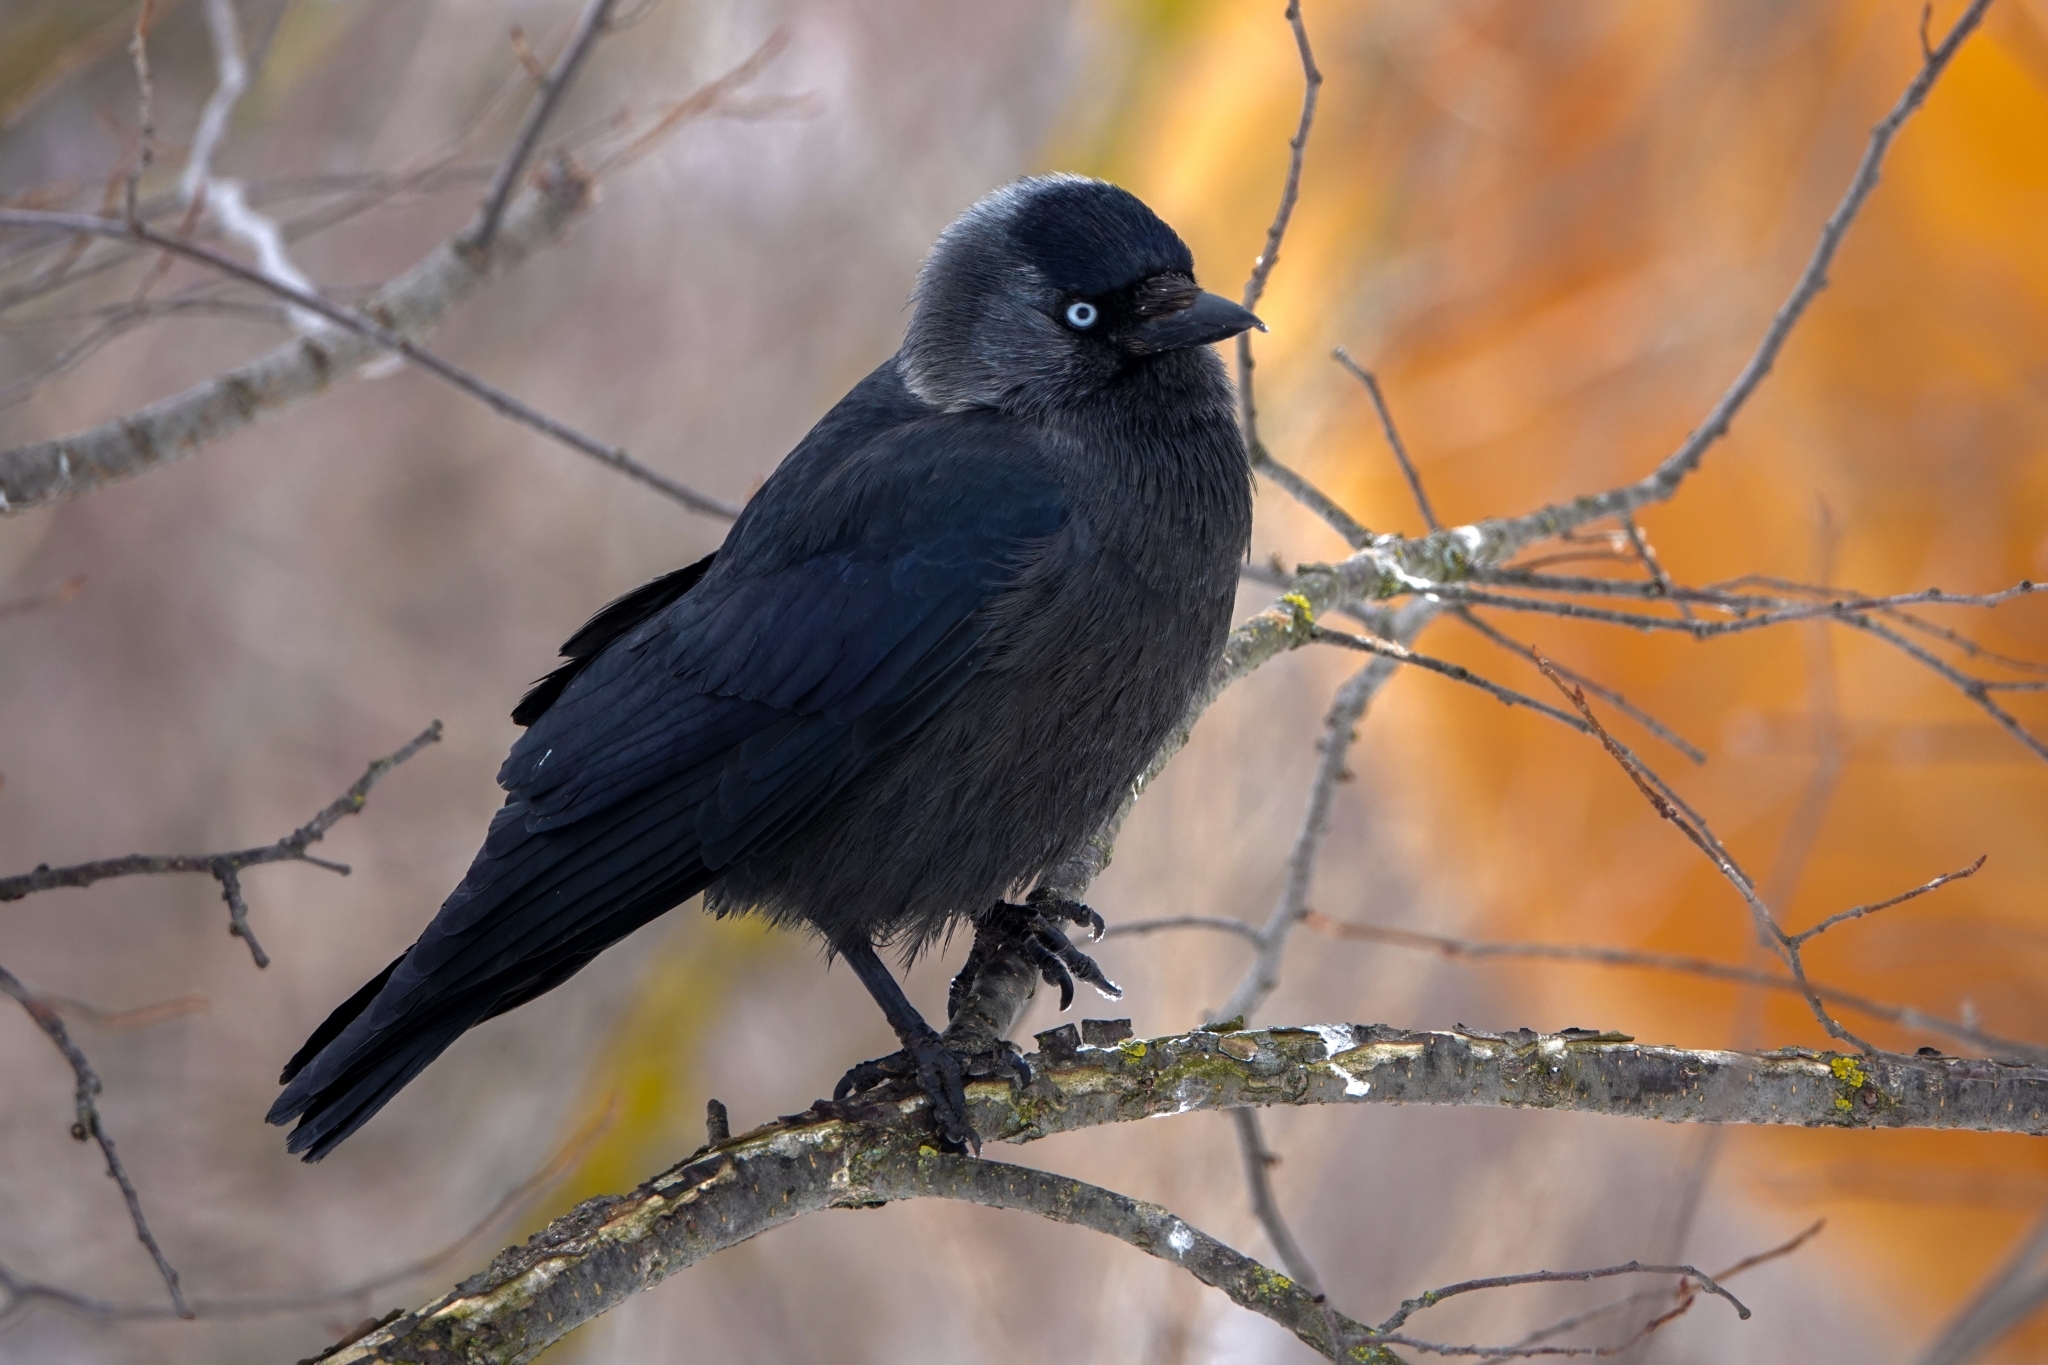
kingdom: Animalia
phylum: Chordata
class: Aves
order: Passeriformes
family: Corvidae
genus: Coloeus
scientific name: Coloeus monedula
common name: Western jackdaw
